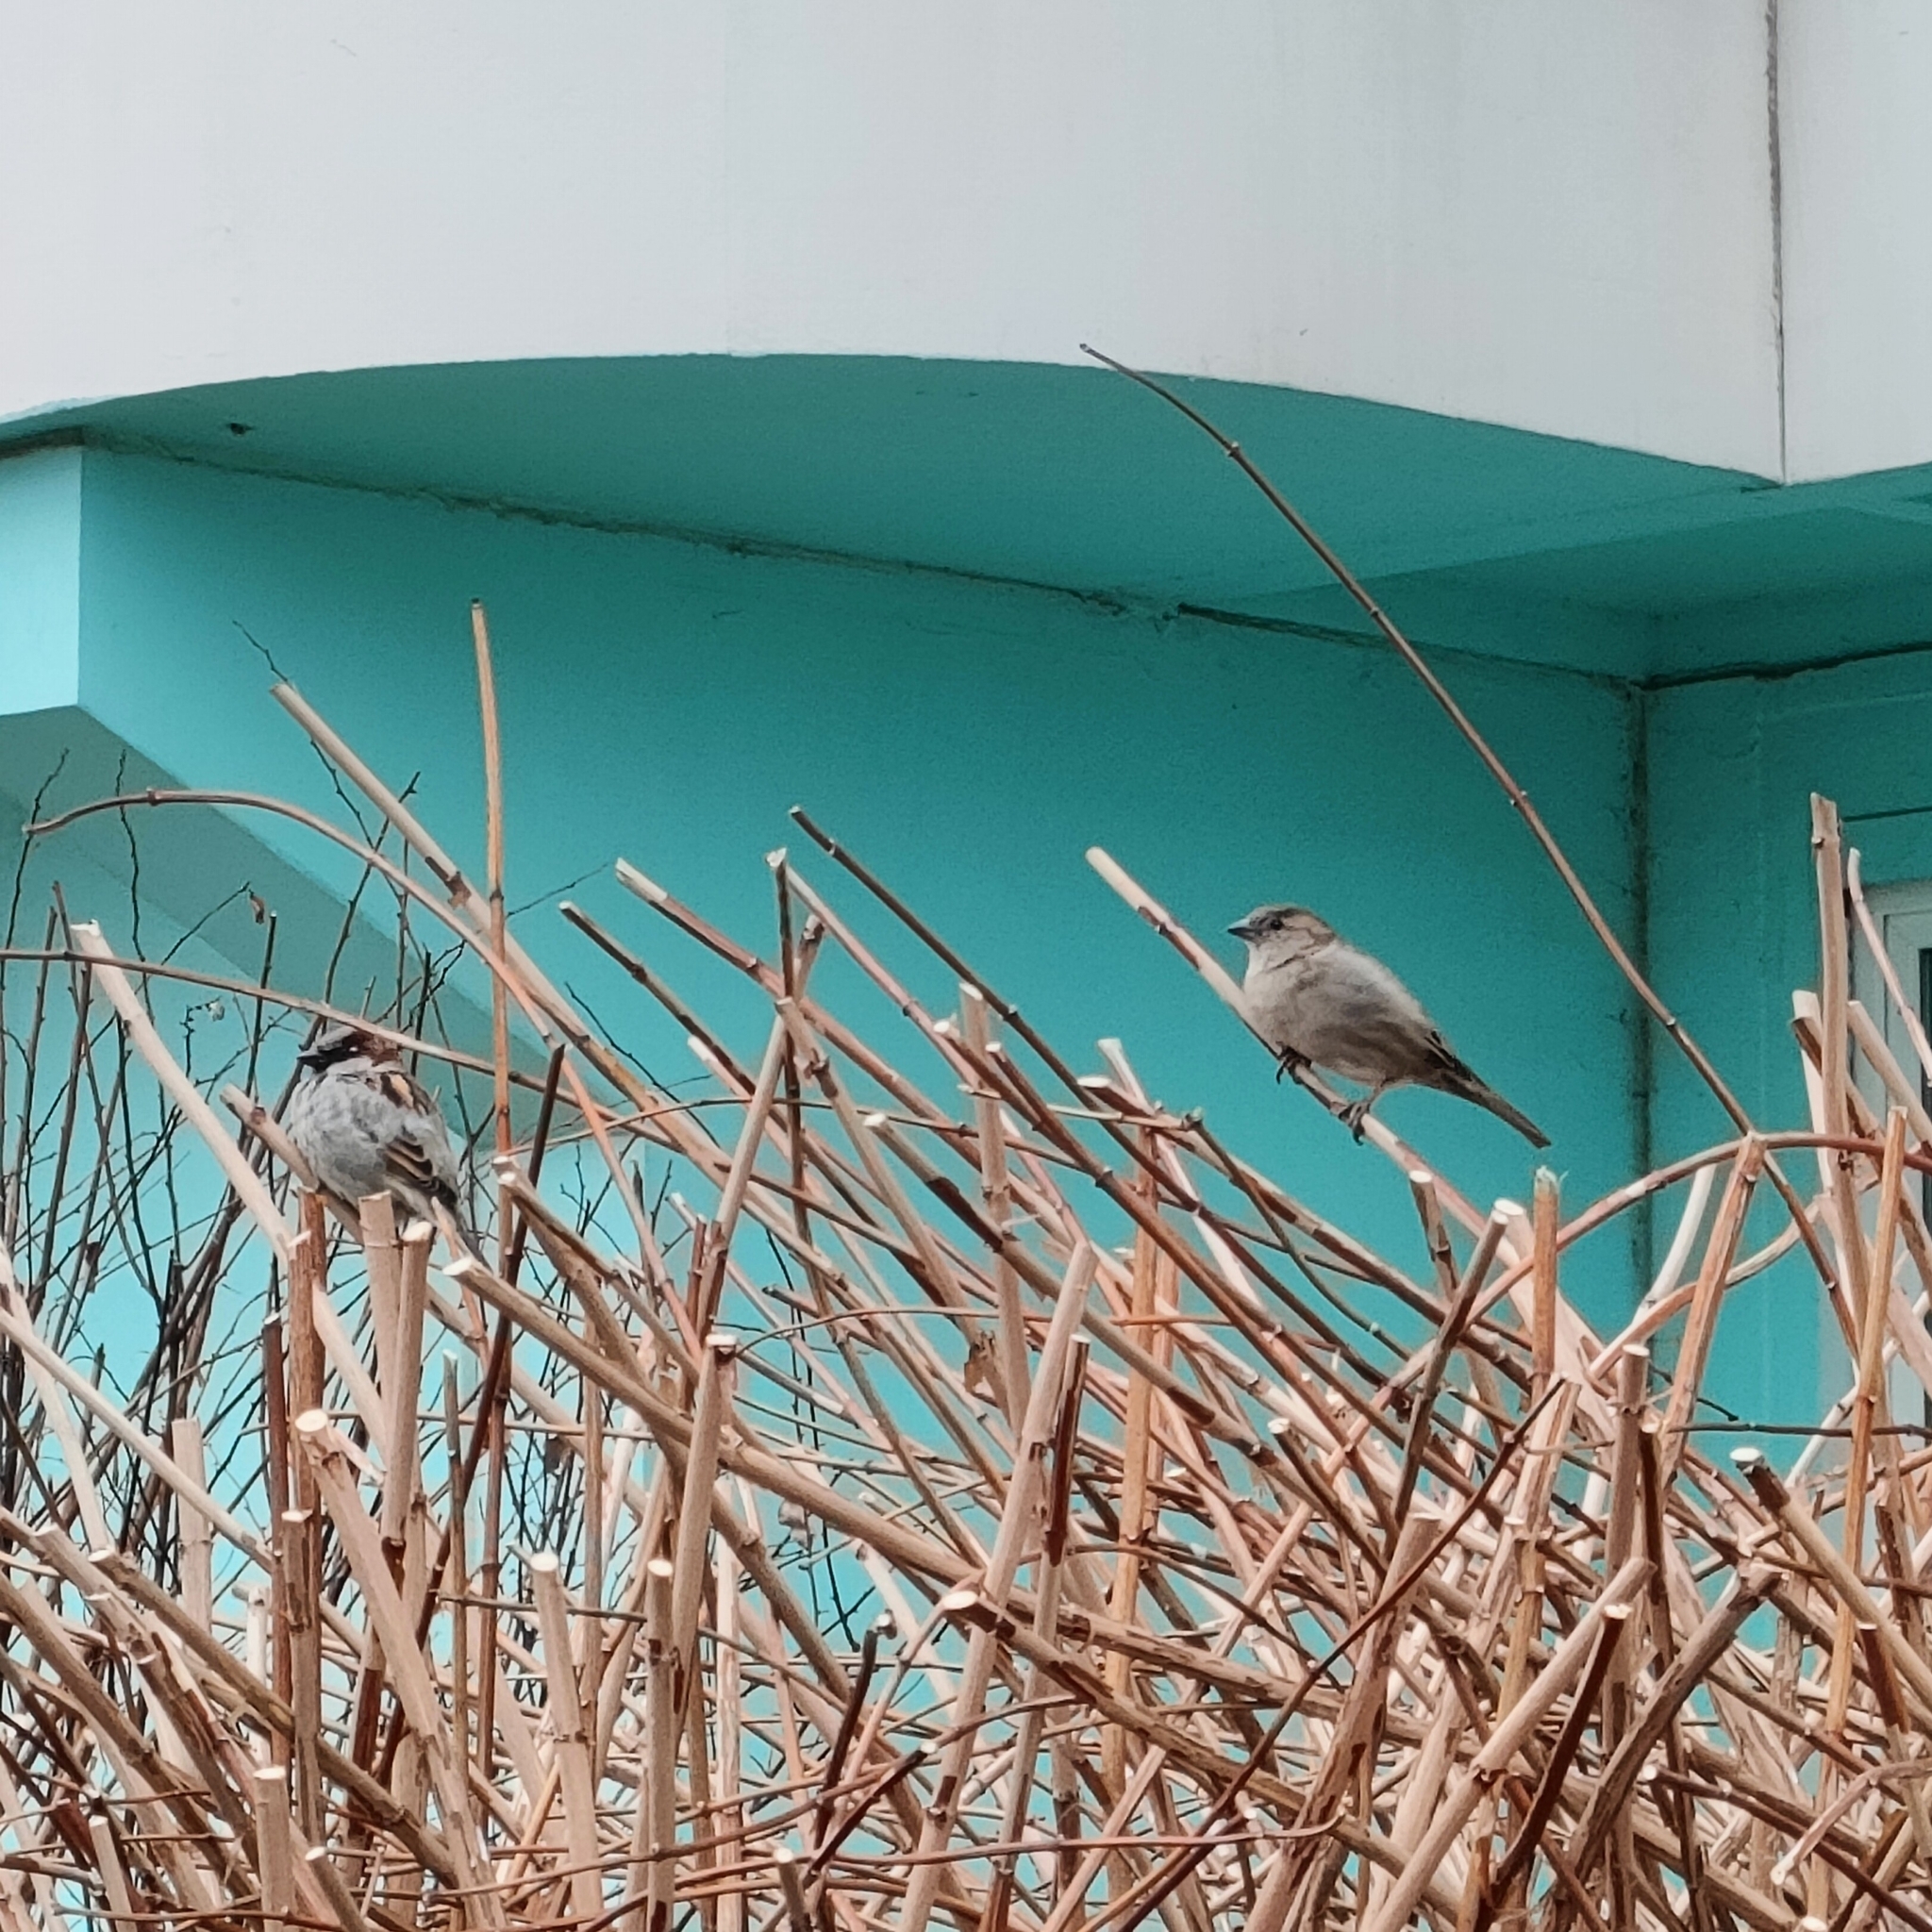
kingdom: Animalia
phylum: Chordata
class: Aves
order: Passeriformes
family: Passeridae
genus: Passer
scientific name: Passer domesticus
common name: House sparrow
